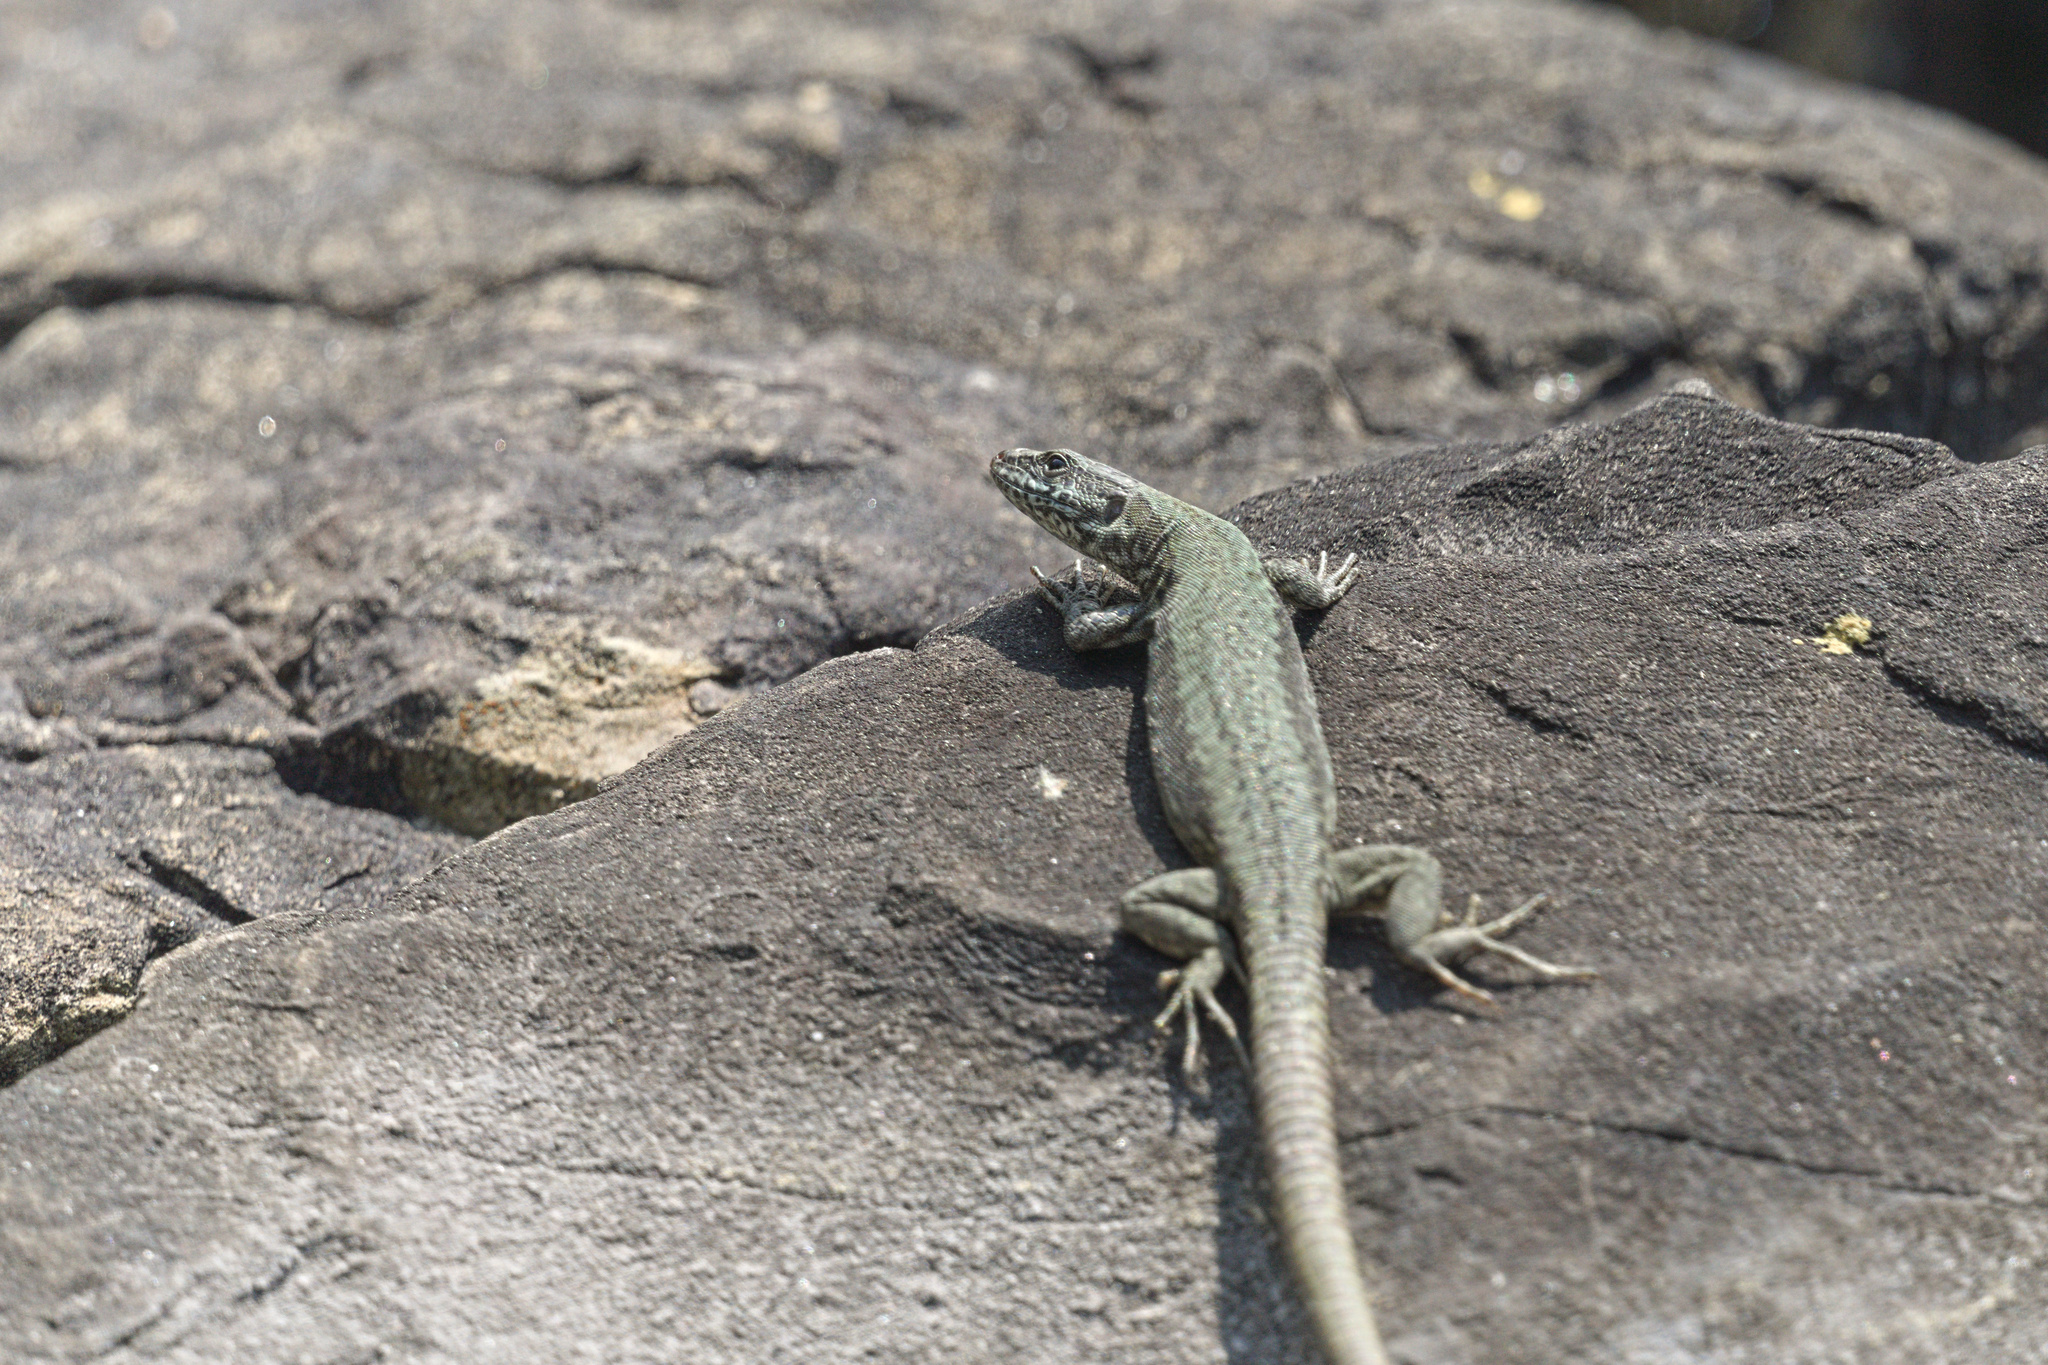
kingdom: Animalia
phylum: Chordata
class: Squamata
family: Lacertidae
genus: Podarcis
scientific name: Podarcis muralis
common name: Common wall lizard
